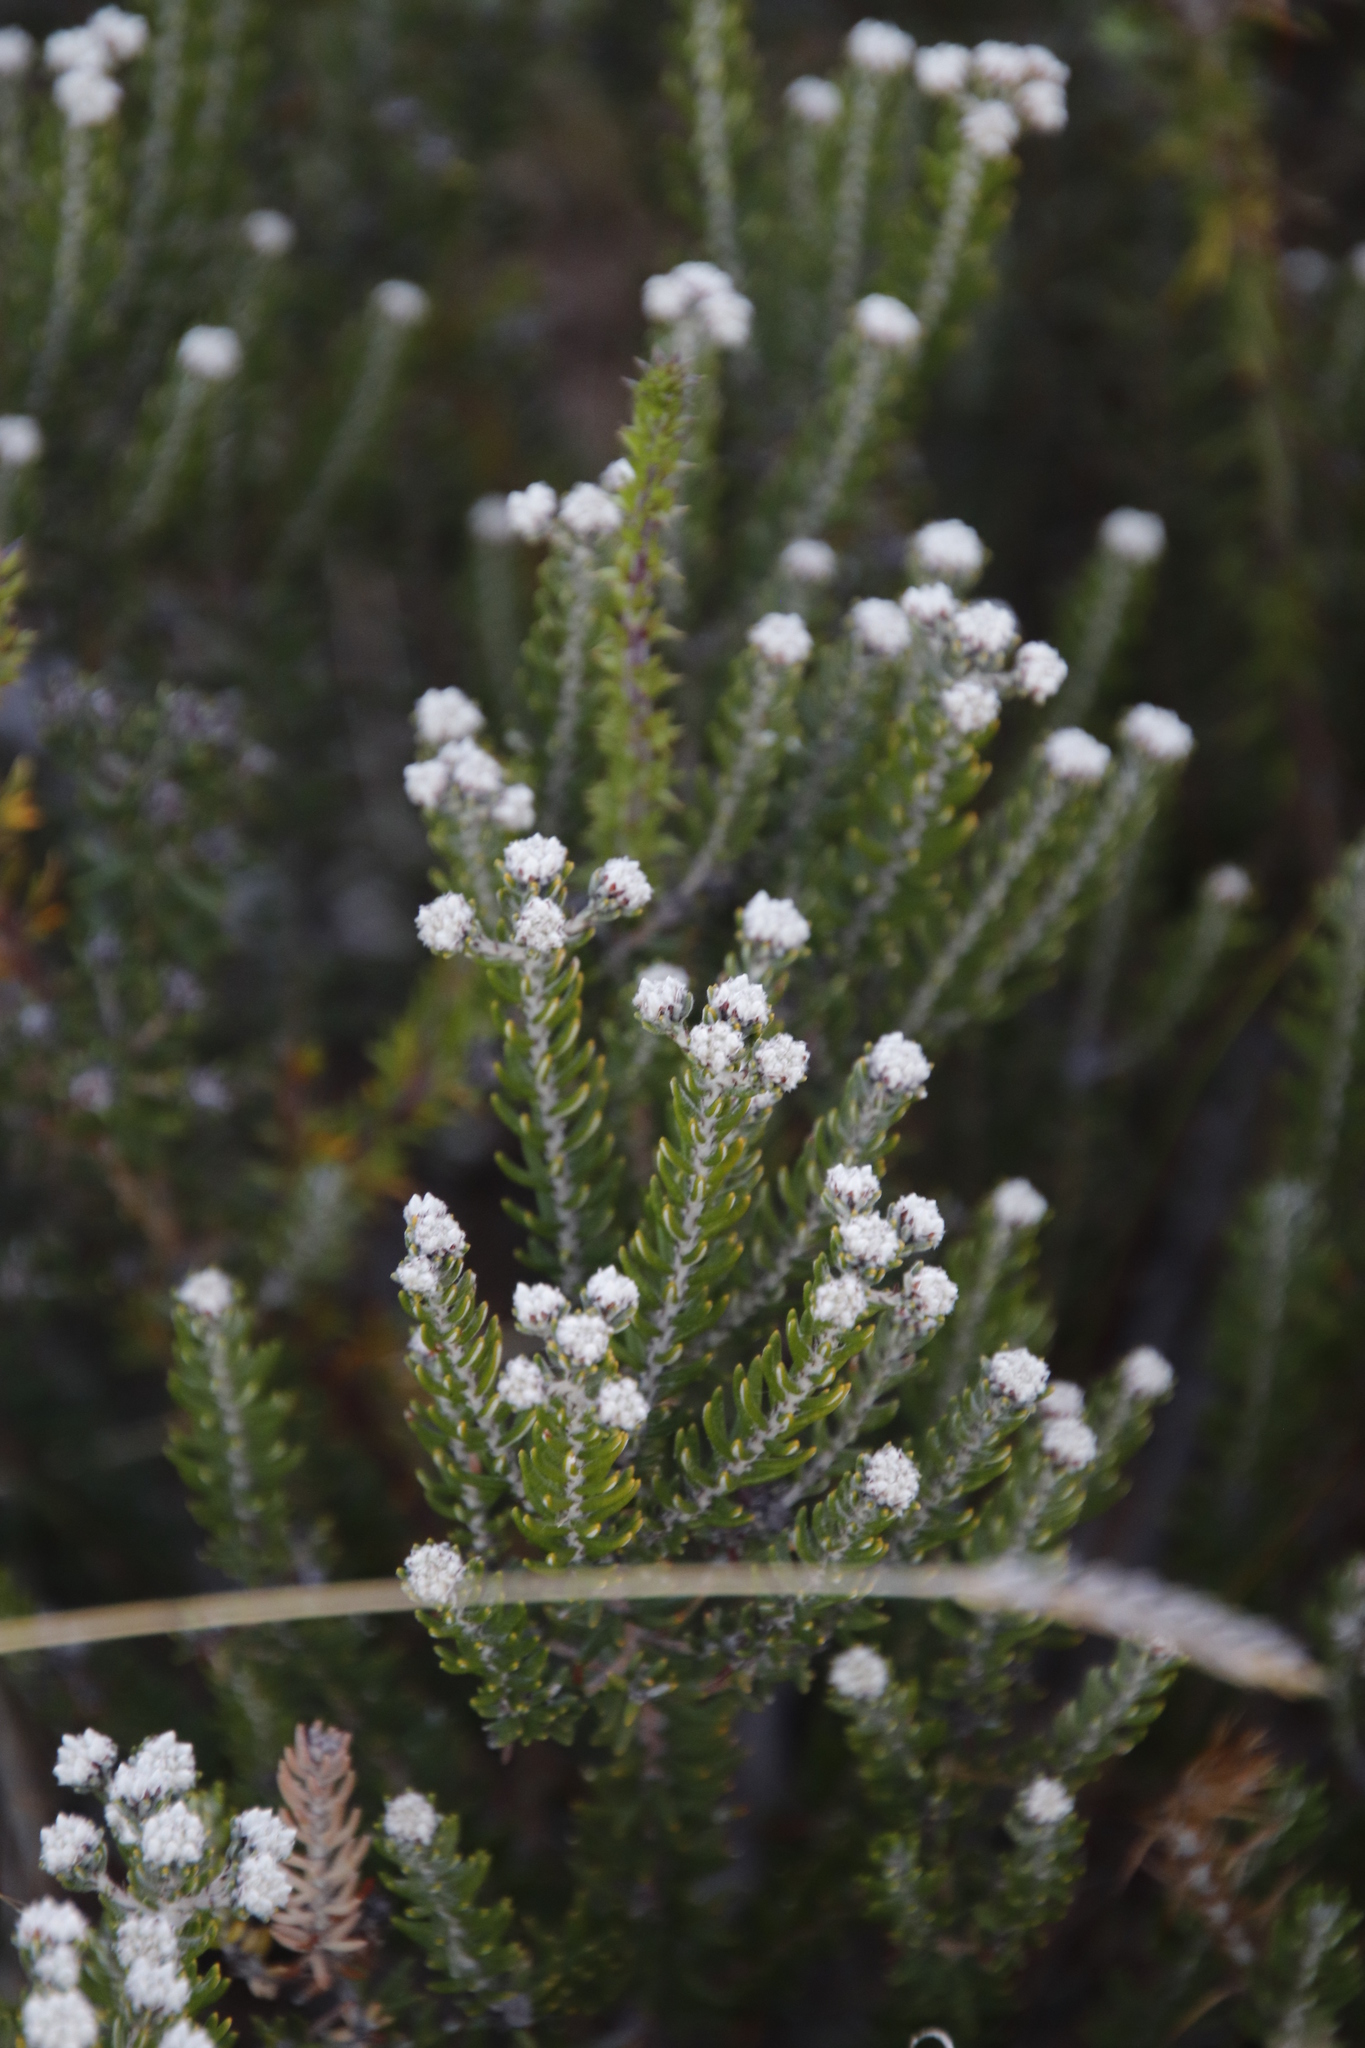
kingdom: Plantae
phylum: Tracheophyta
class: Magnoliopsida
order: Rosales
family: Rhamnaceae
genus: Phylica
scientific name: Phylica ericoides
